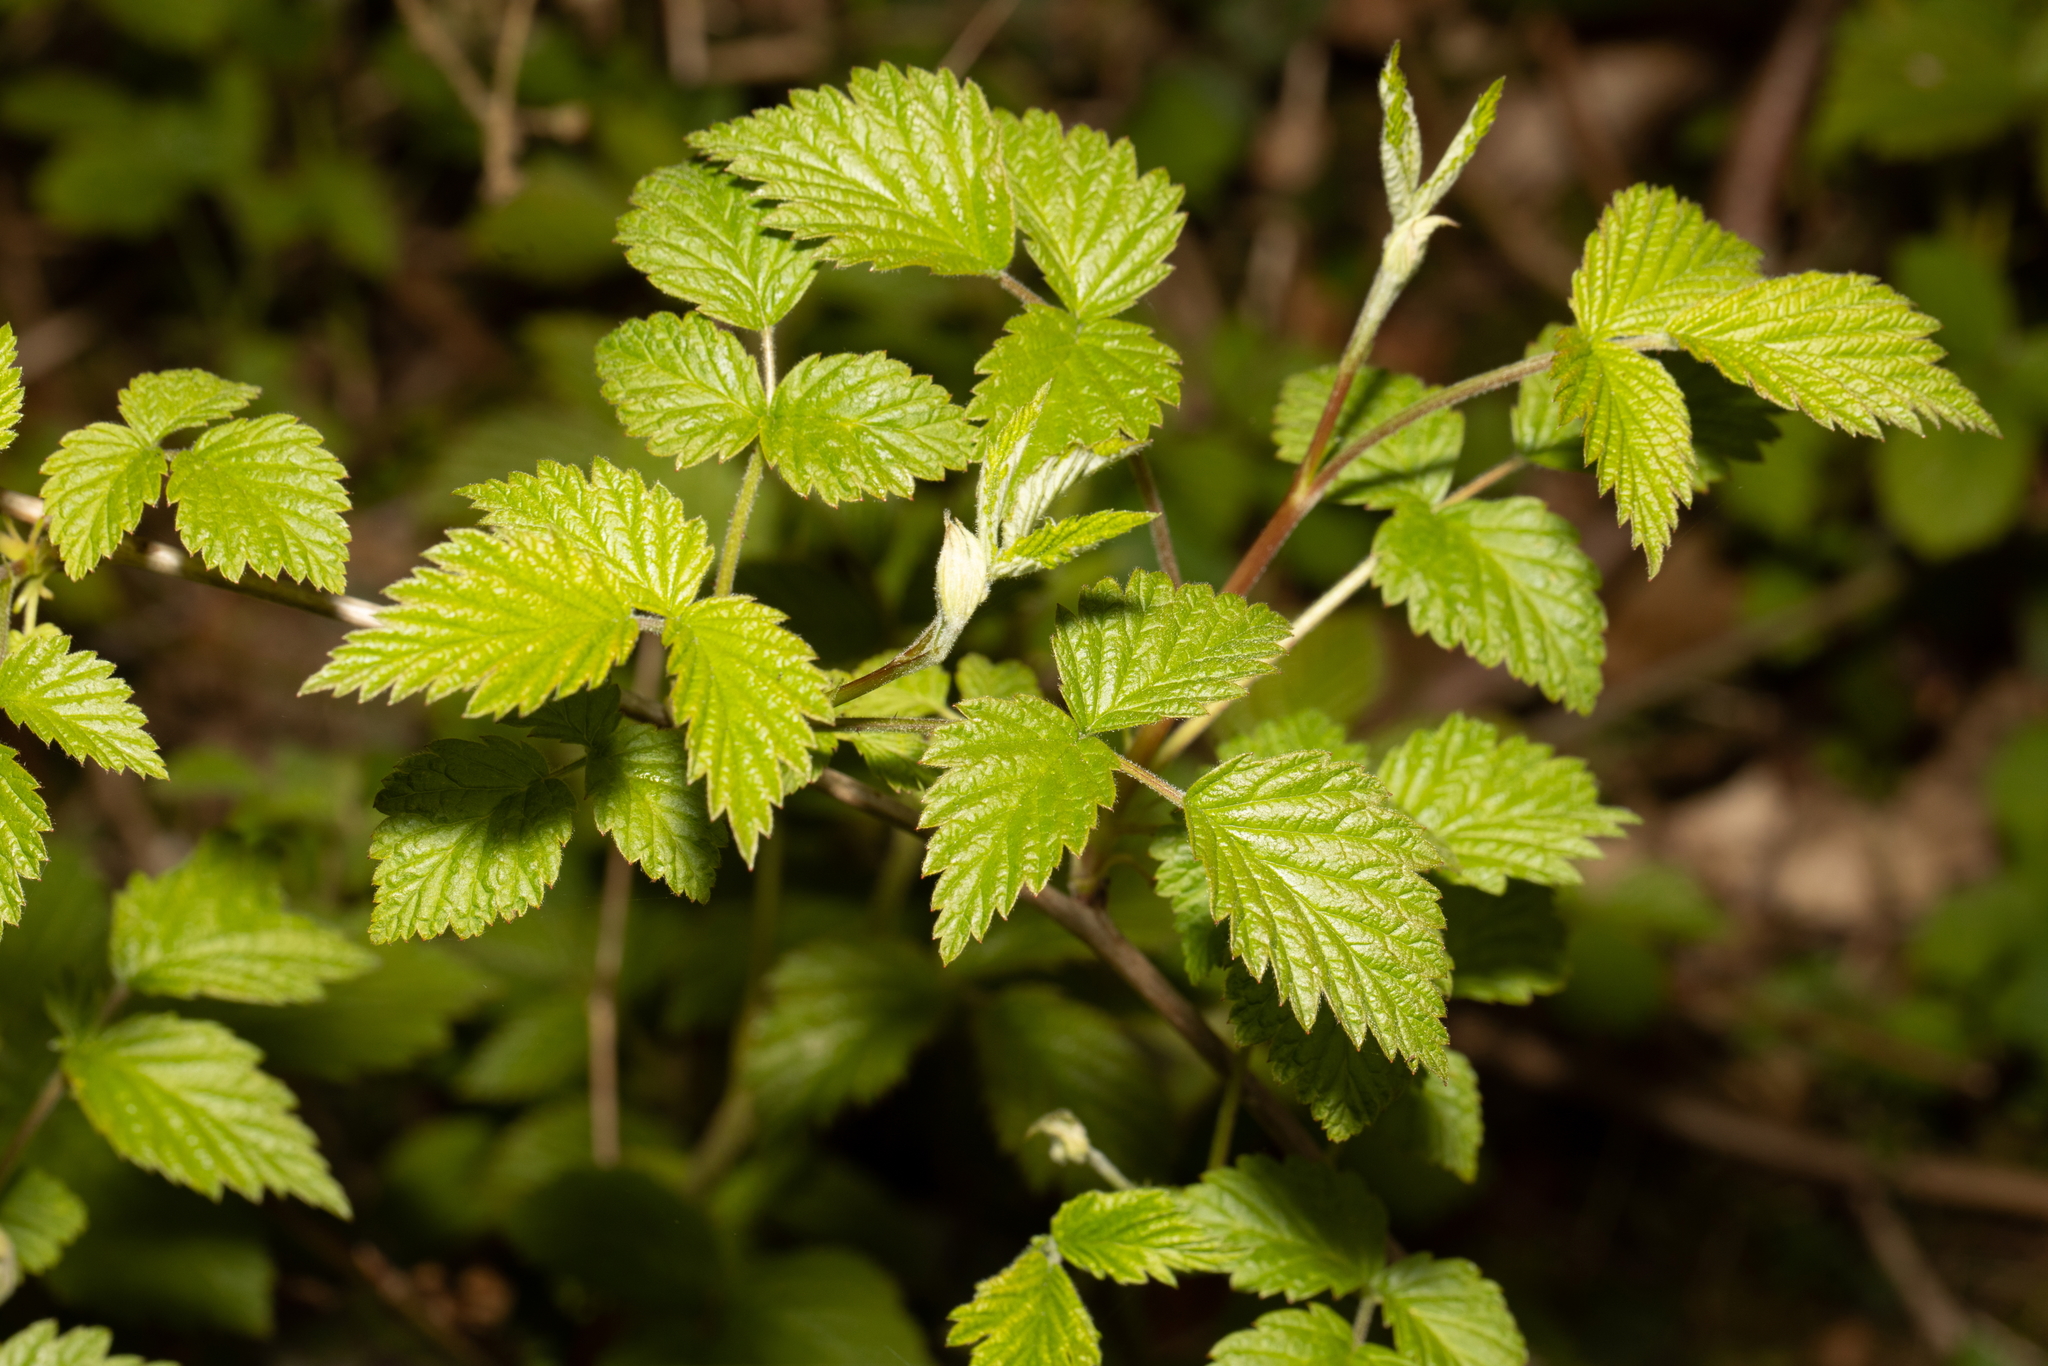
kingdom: Plantae
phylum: Tracheophyta
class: Magnoliopsida
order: Rosales
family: Rosaceae
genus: Rubus
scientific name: Rubus idaeus
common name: Raspberry
